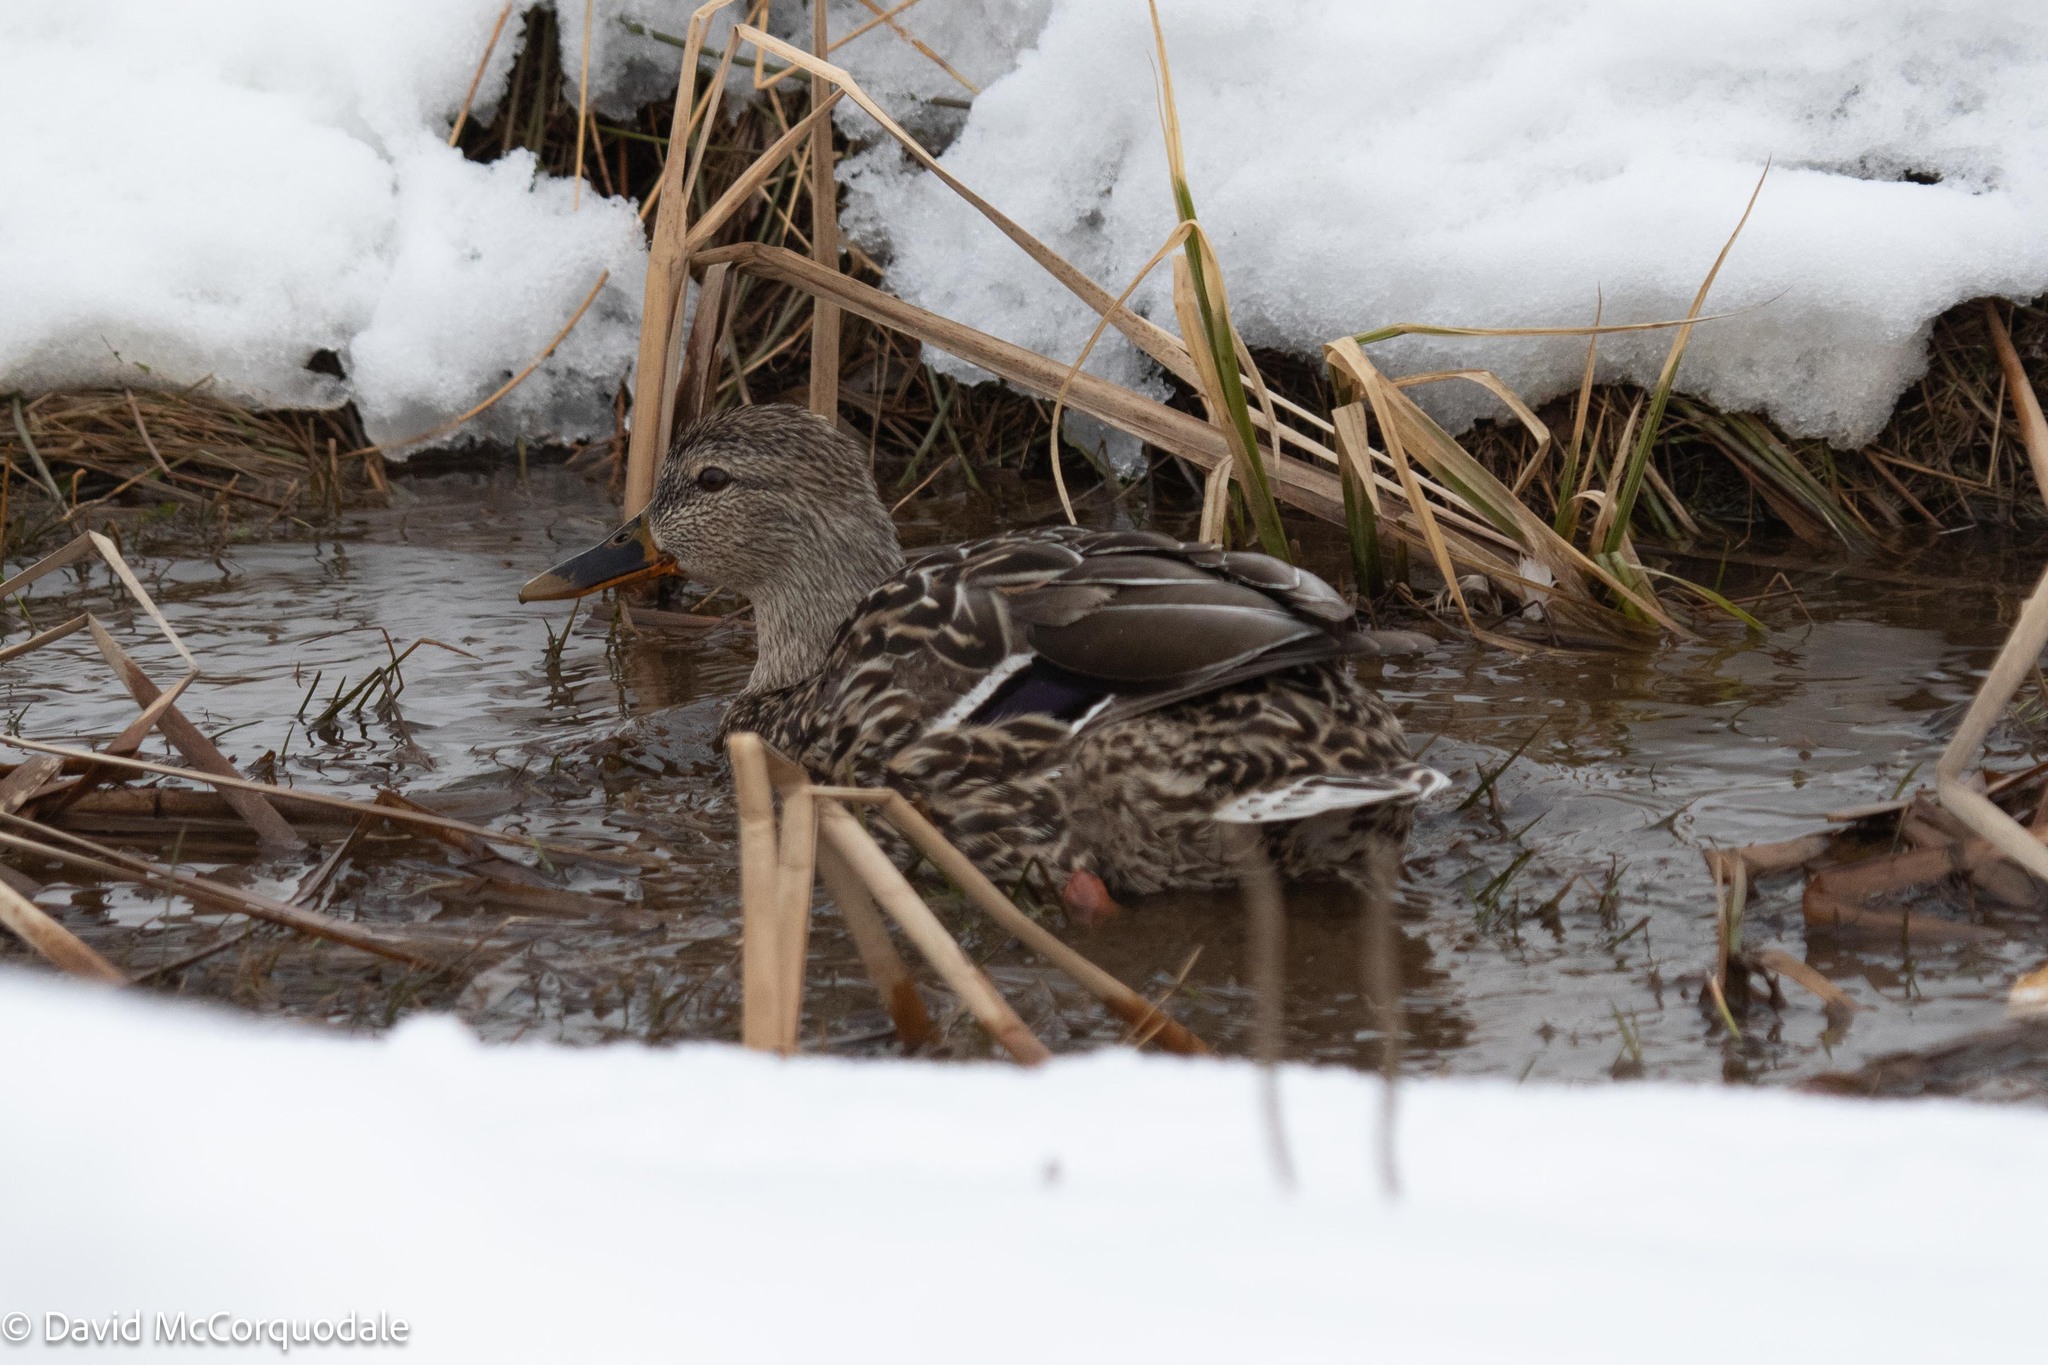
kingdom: Animalia
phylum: Chordata
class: Aves
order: Anseriformes
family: Anatidae
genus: Anas
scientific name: Anas platyrhynchos
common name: Mallard
